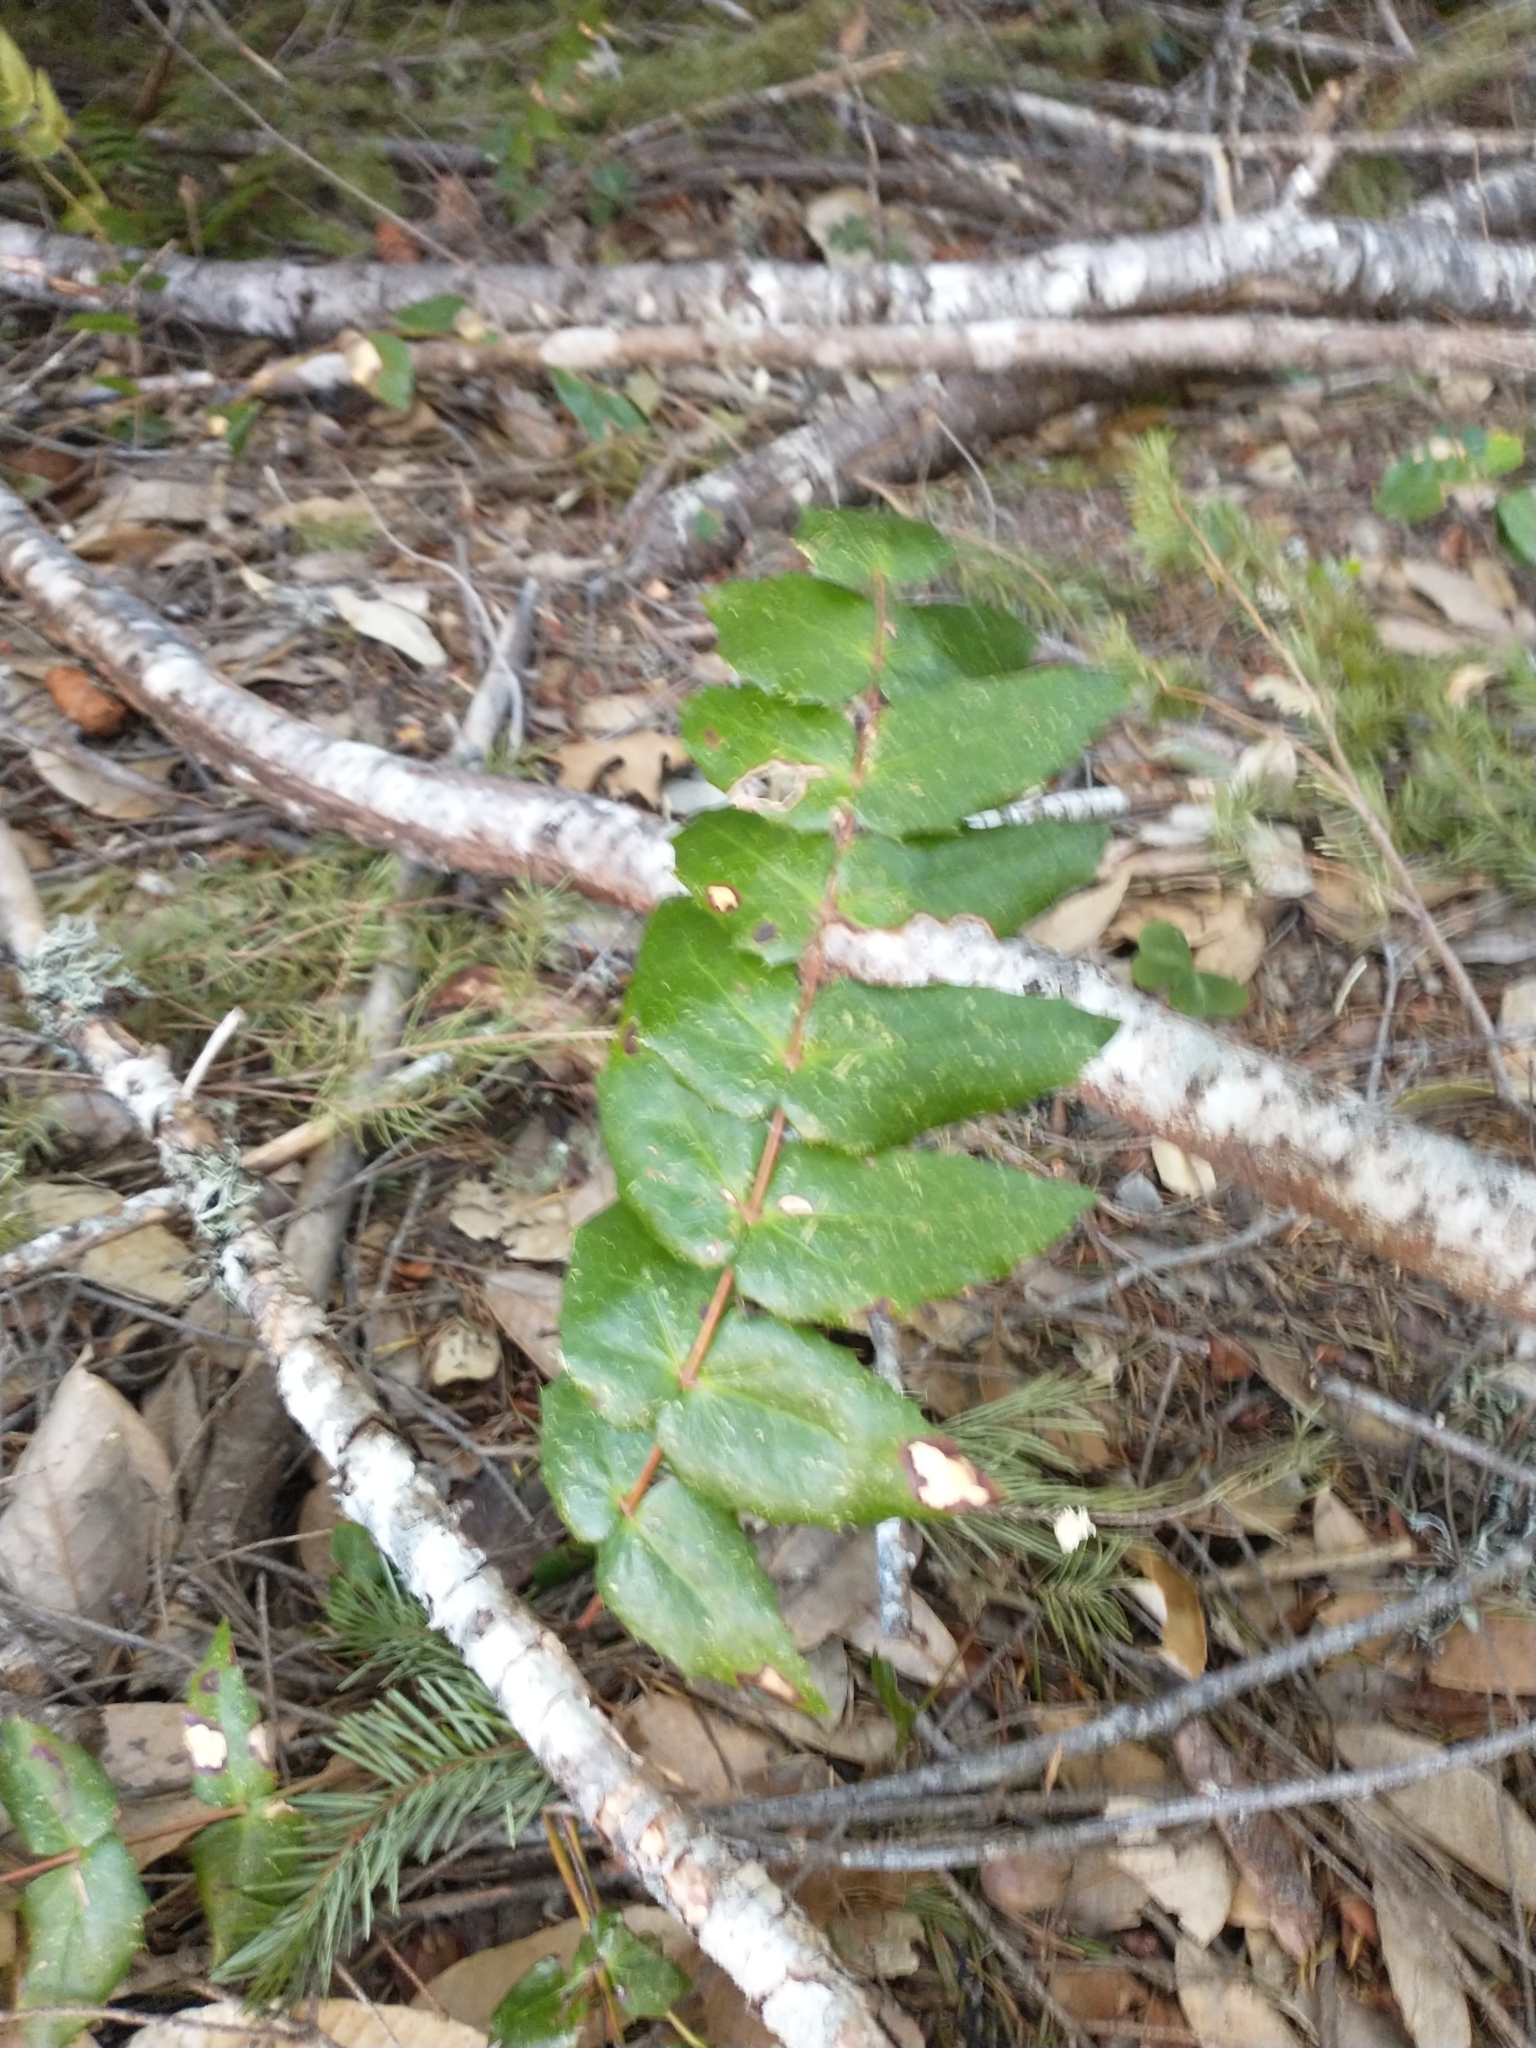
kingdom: Plantae
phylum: Tracheophyta
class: Magnoliopsida
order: Ranunculales
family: Berberidaceae
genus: Mahonia
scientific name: Mahonia nervosa
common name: Cascade oregon-grape
